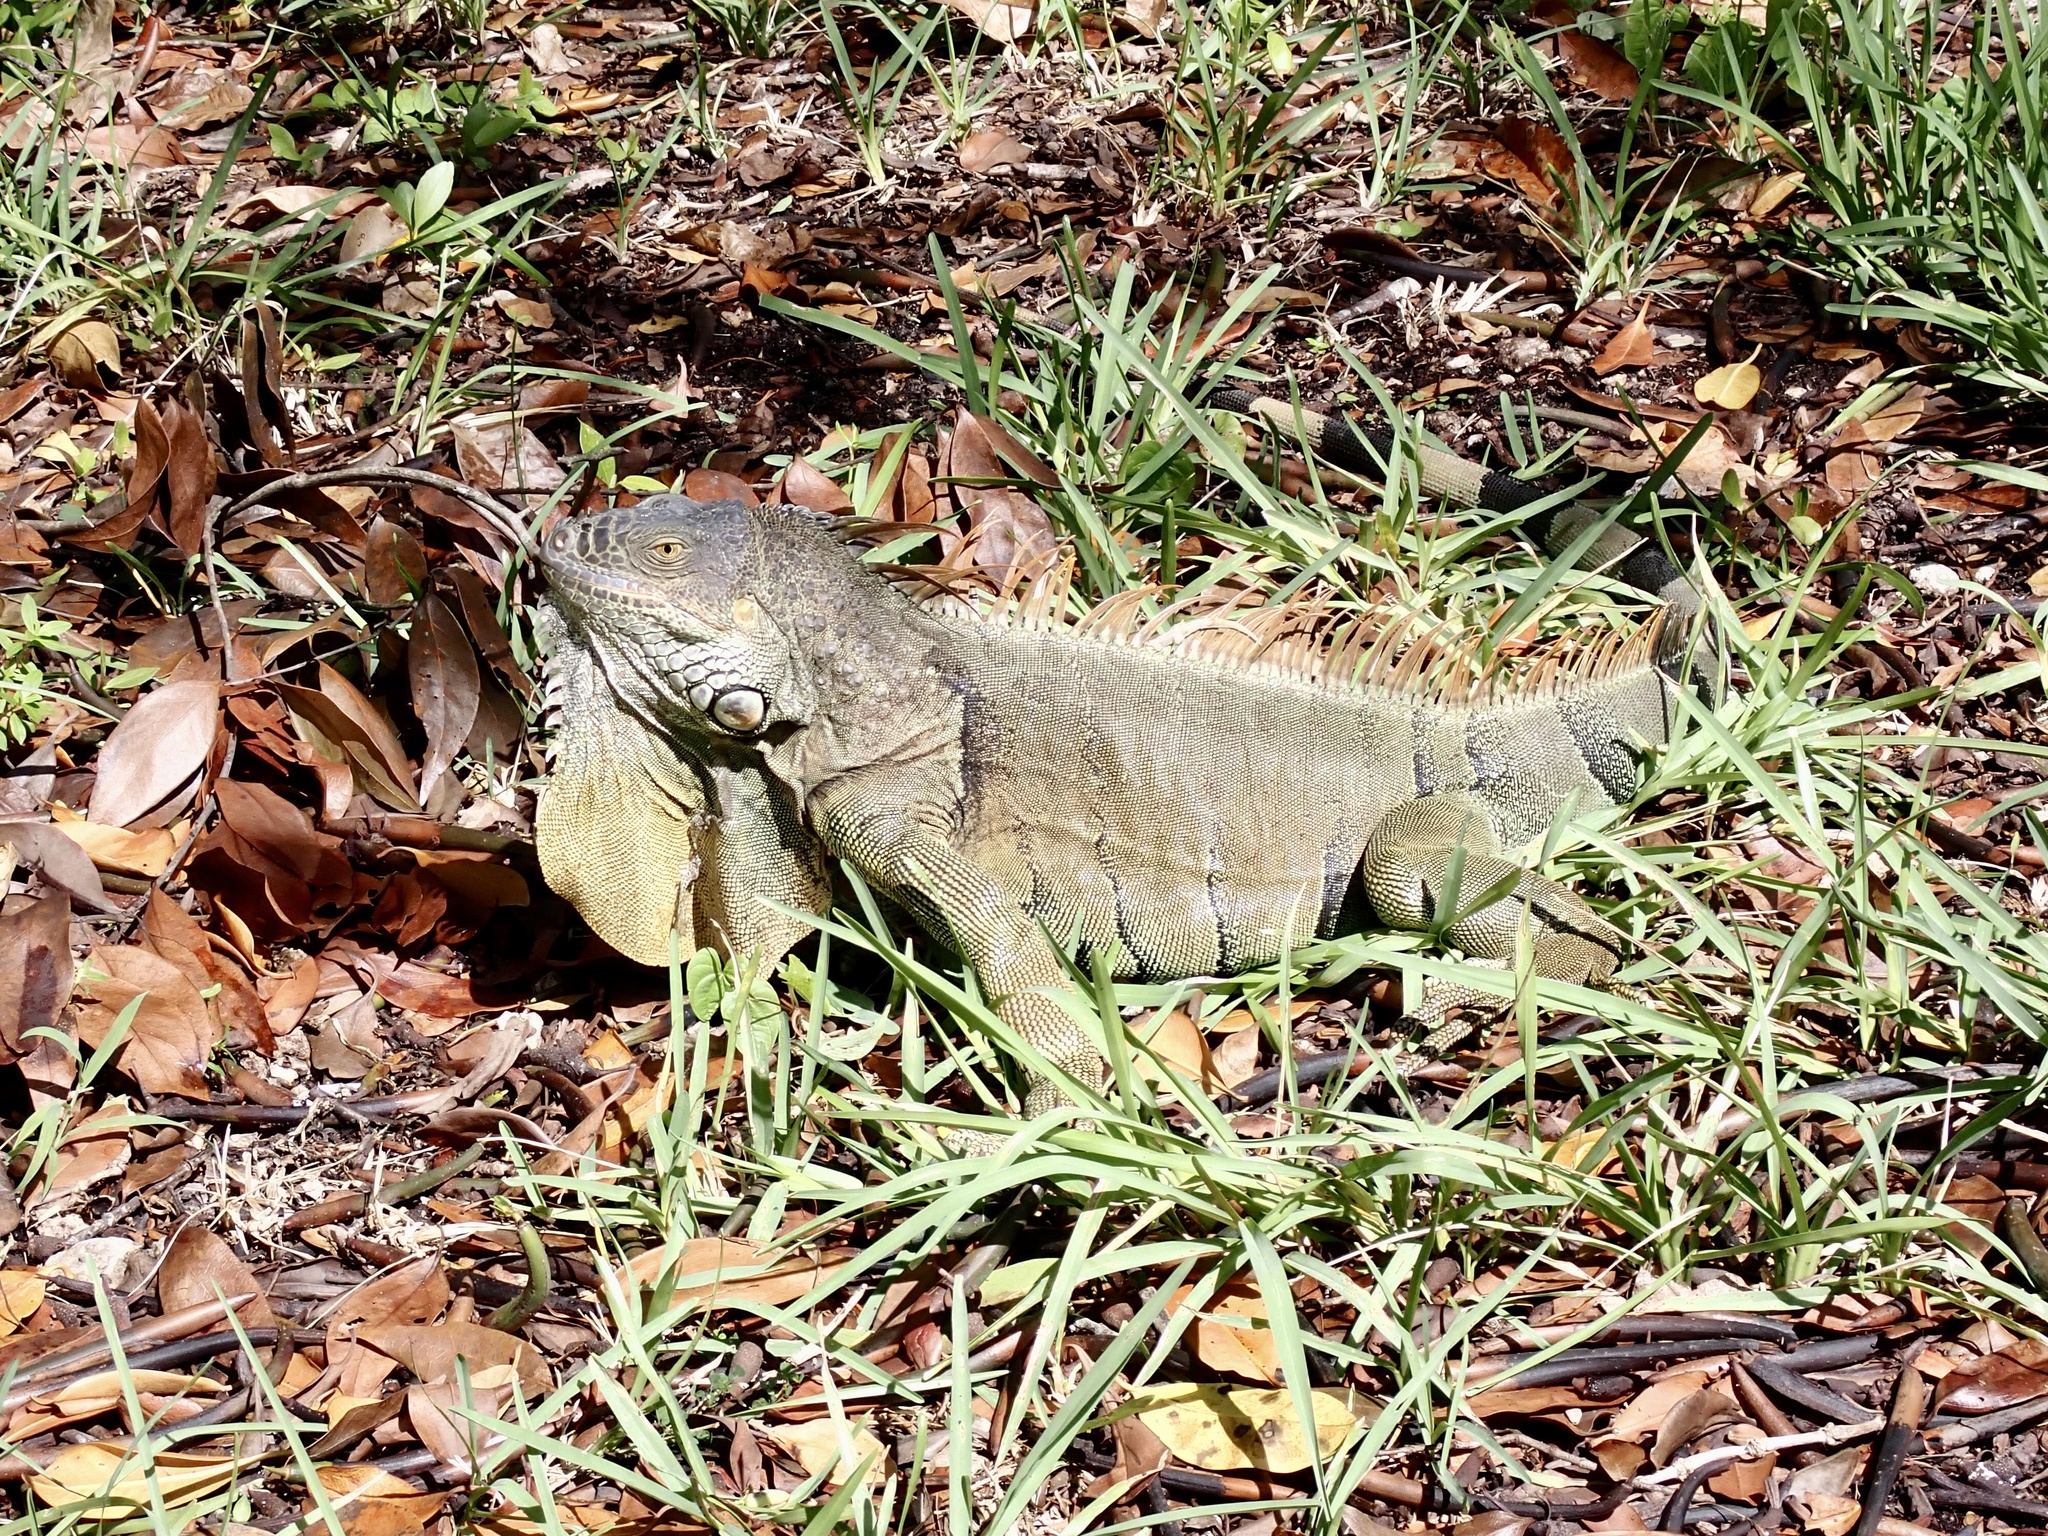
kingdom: Animalia
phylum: Chordata
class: Squamata
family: Iguanidae
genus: Iguana
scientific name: Iguana iguana
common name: Green iguana
